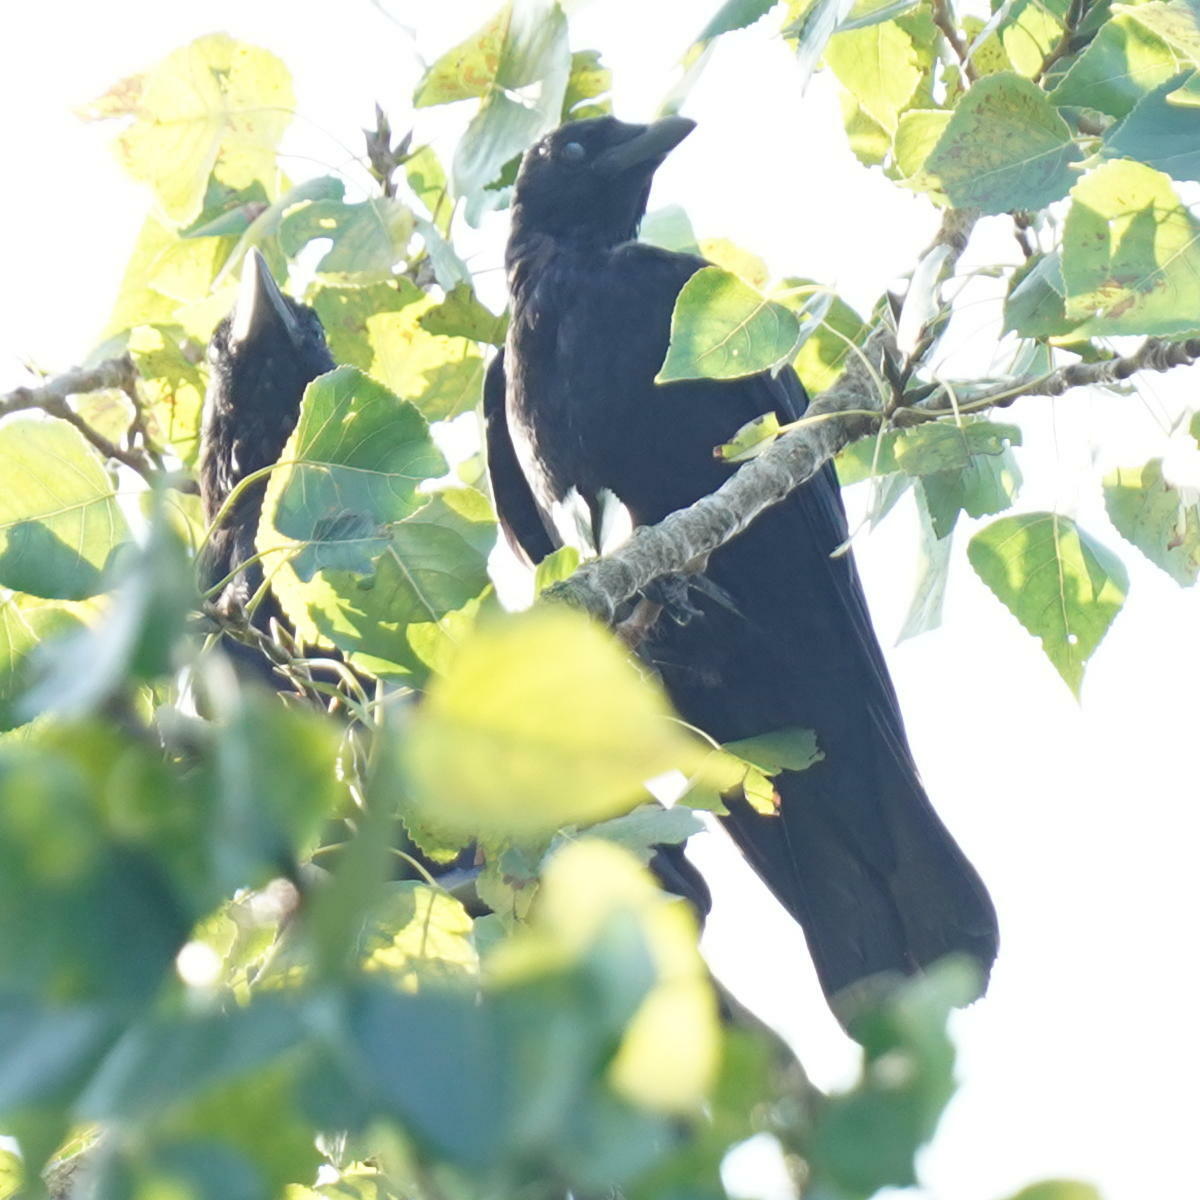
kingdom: Animalia
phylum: Chordata
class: Aves
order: Passeriformes
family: Corvidae
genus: Corvus
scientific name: Corvus corone
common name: Carrion crow
